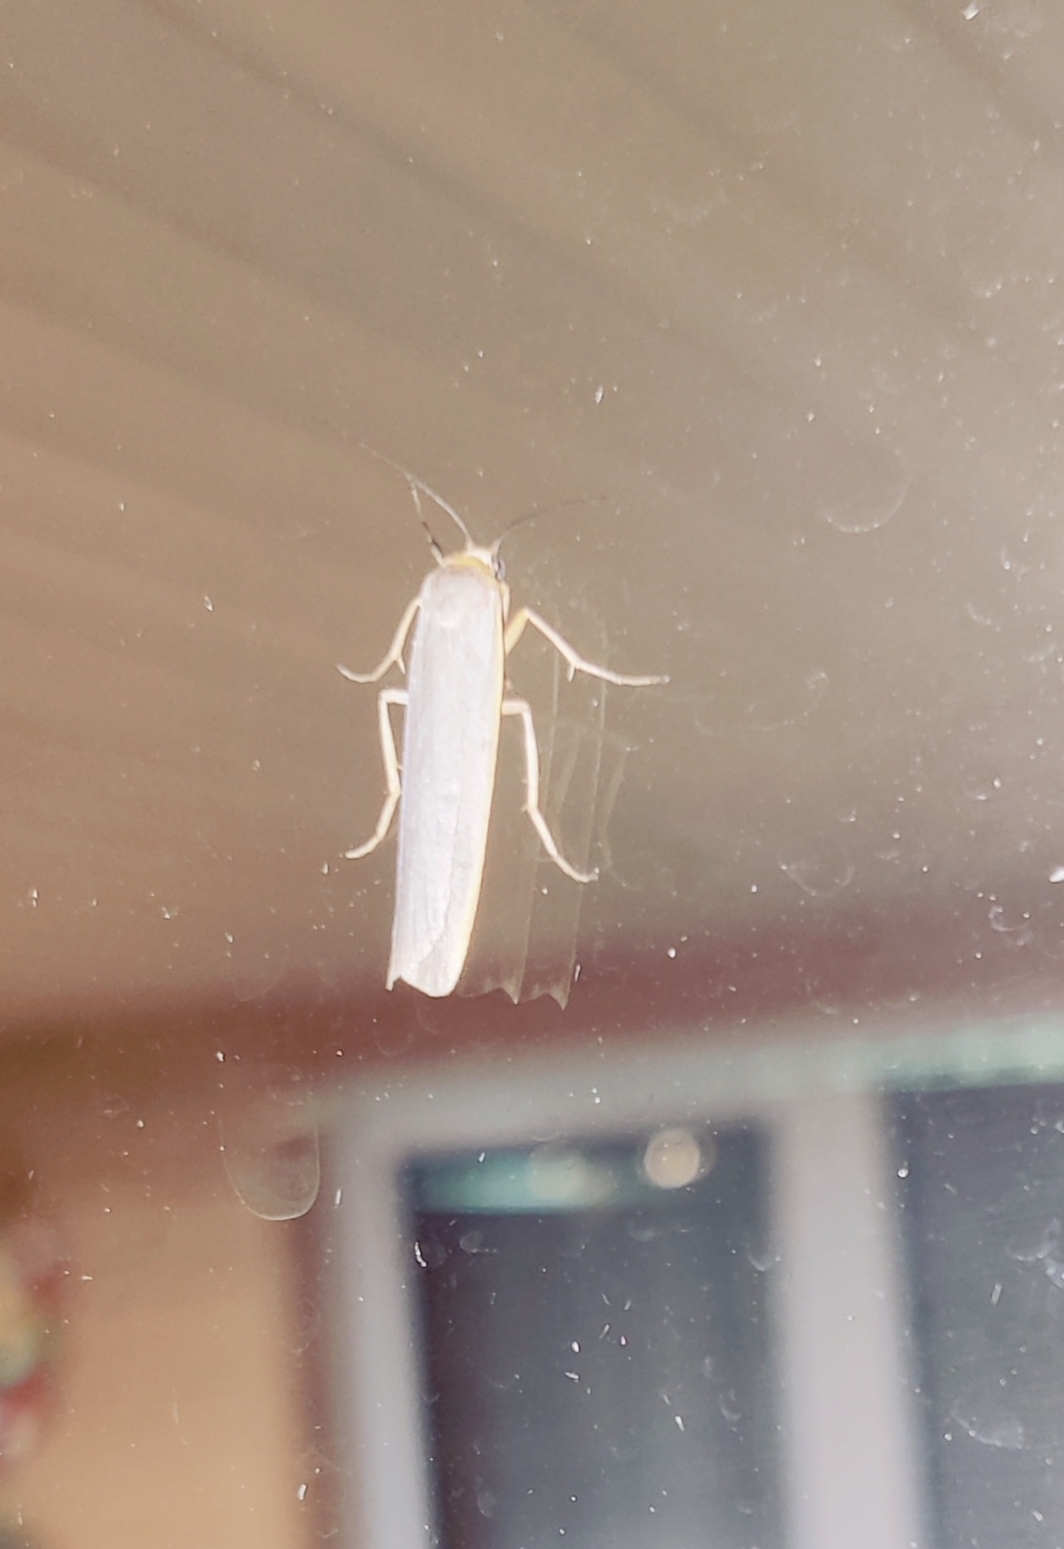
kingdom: Animalia
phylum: Arthropoda
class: Insecta
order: Lepidoptera
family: Erebidae
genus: Manulea
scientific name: Manulea complana
